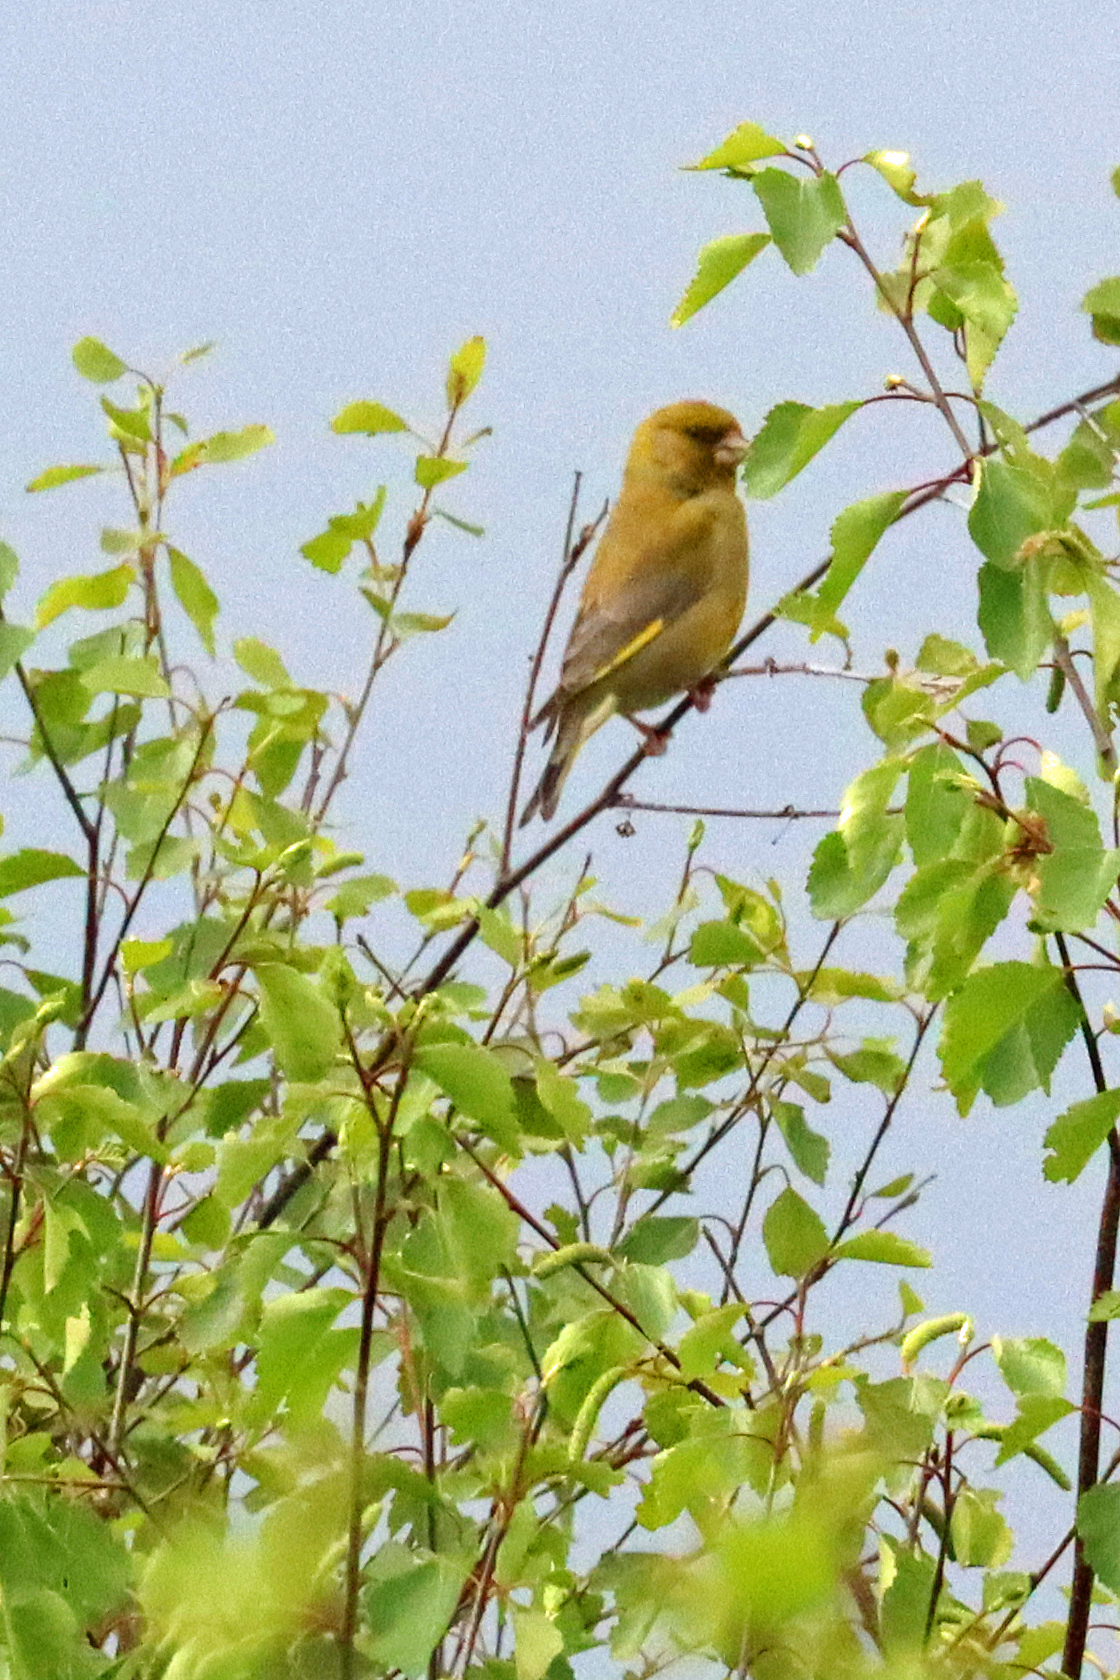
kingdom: Plantae
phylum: Tracheophyta
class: Liliopsida
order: Poales
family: Poaceae
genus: Chloris
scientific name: Chloris chloris
